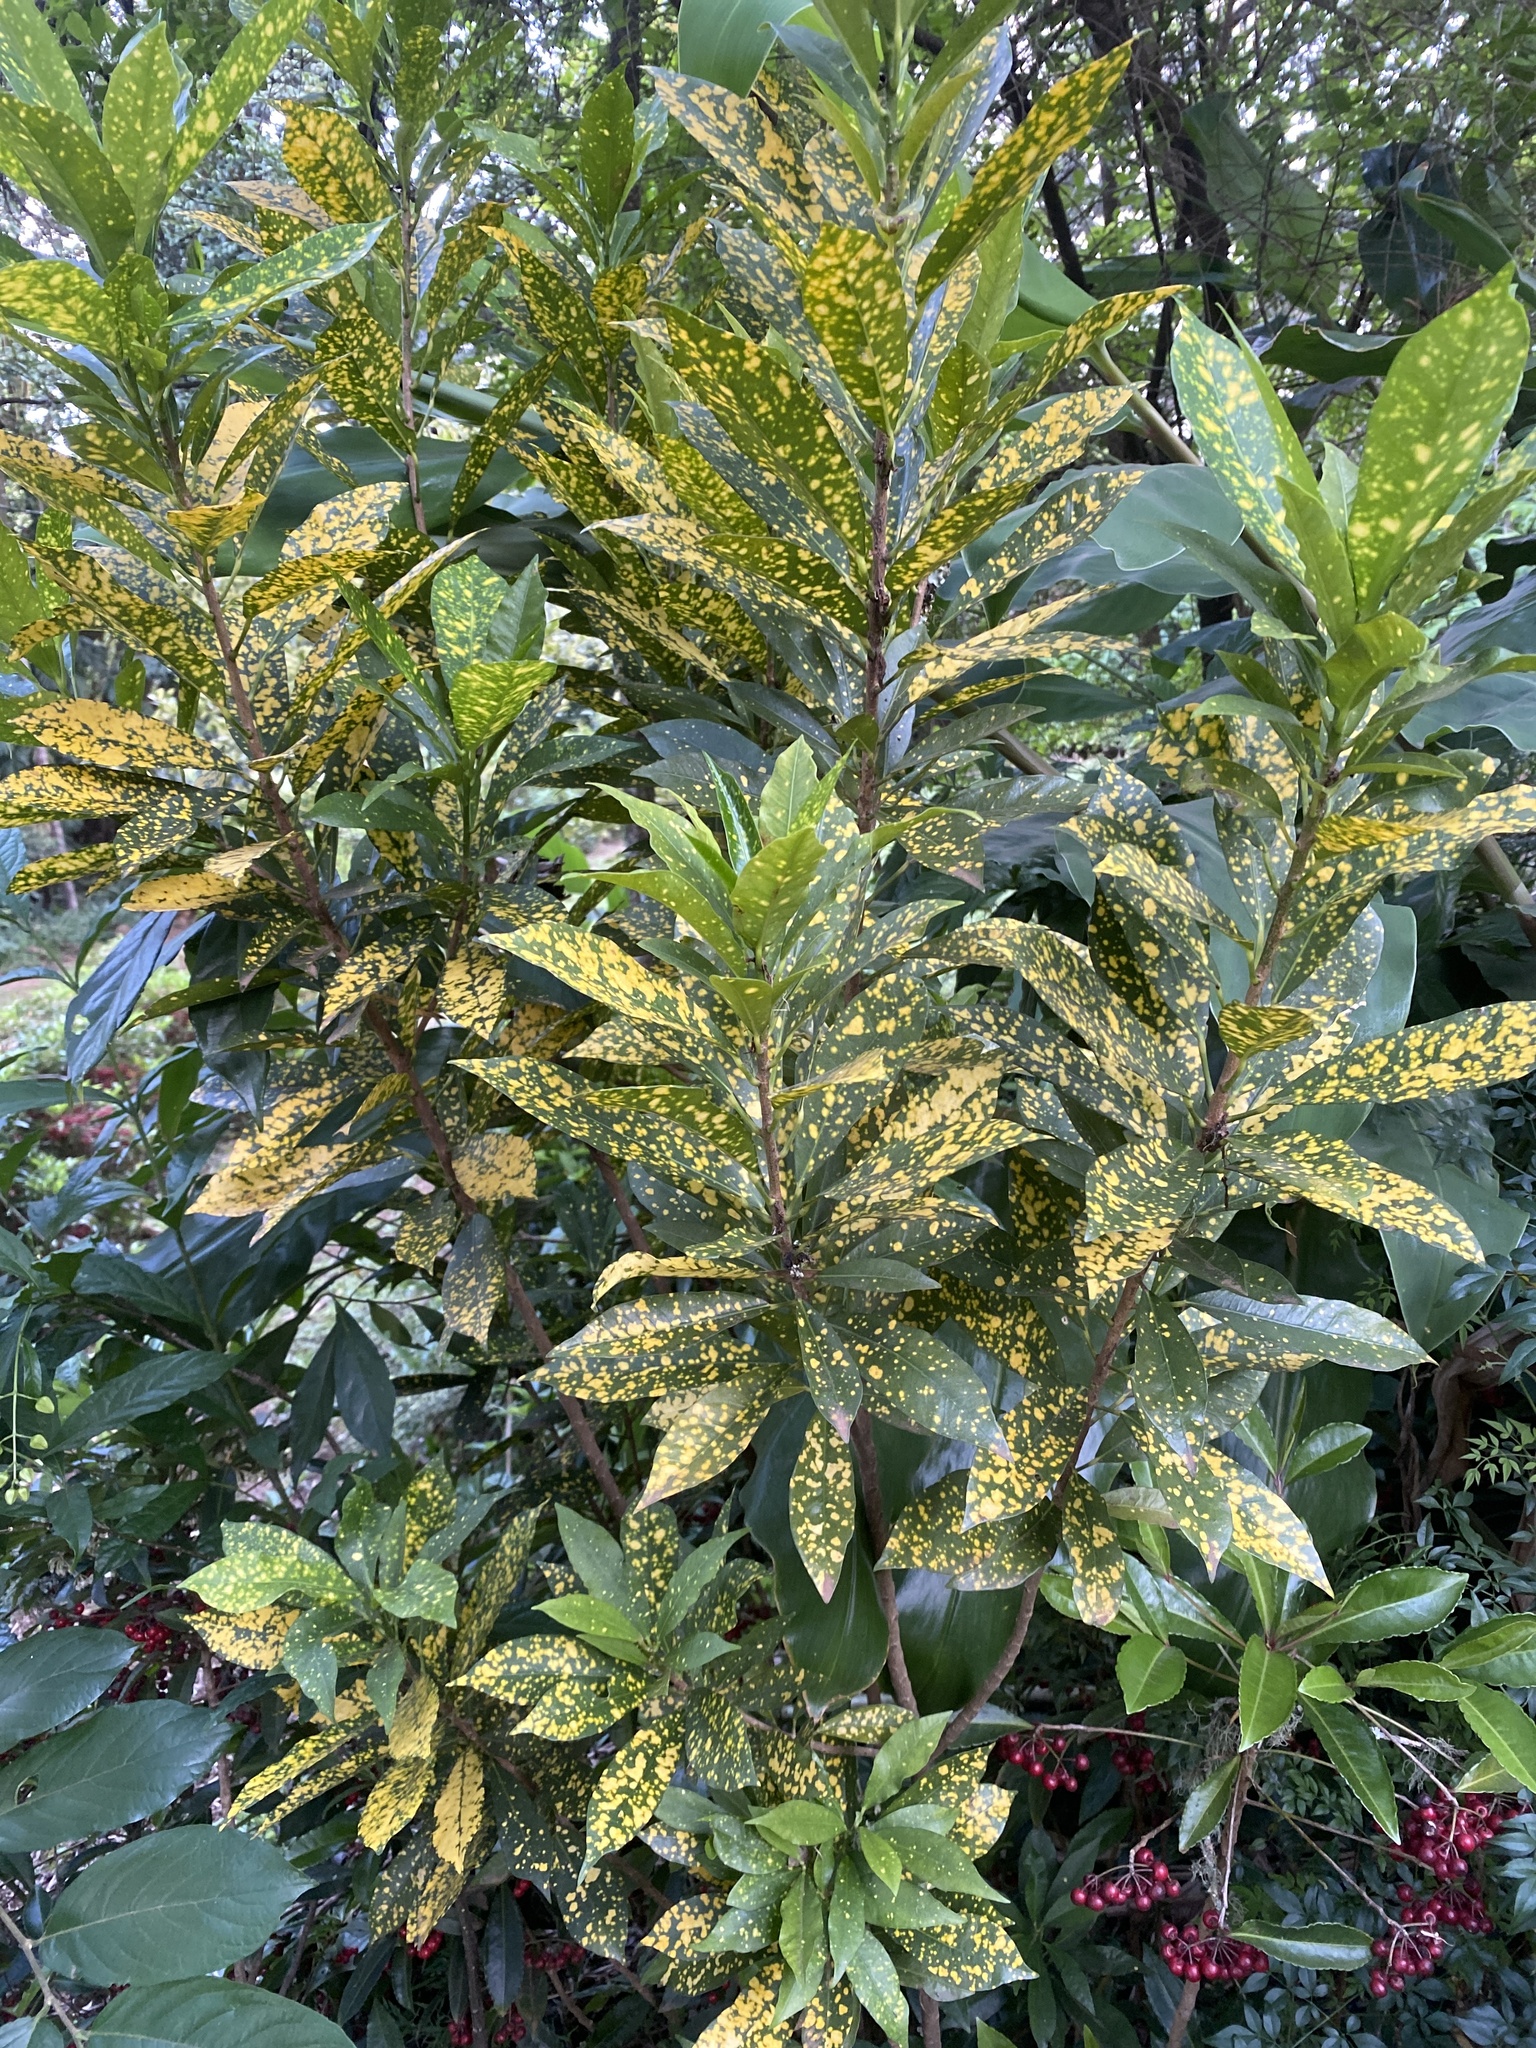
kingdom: Plantae
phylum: Tracheophyta
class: Magnoliopsida
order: Malpighiales
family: Euphorbiaceae
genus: Codiaeum
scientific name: Codiaeum variegatum
